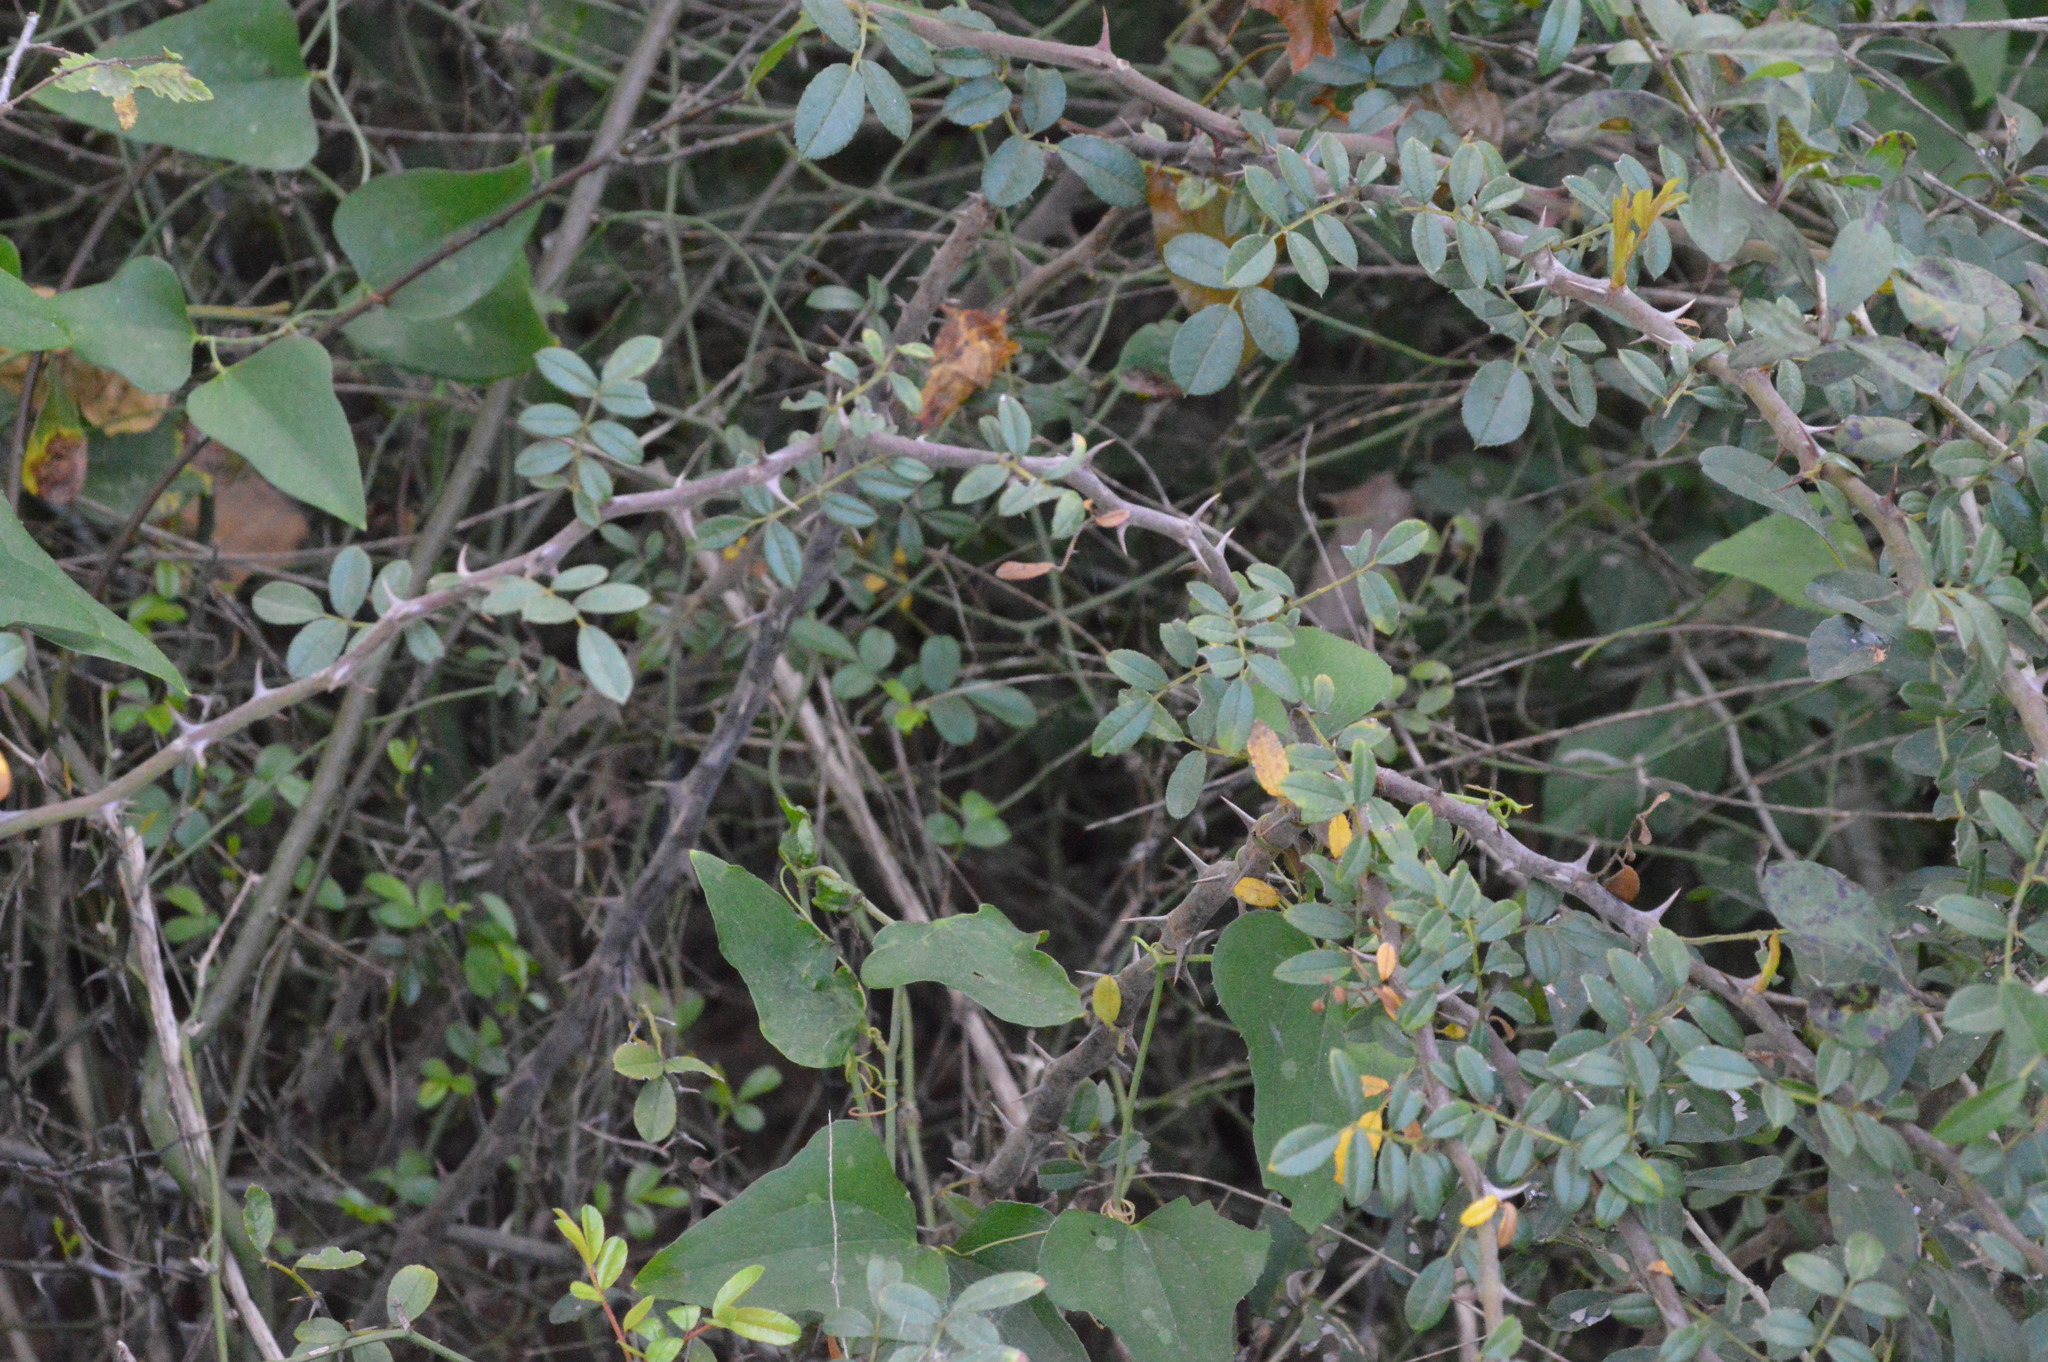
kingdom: Plantae
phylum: Tracheophyta
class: Magnoliopsida
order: Rosales
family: Rosaceae
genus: Rosa
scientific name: Rosa bracteata
